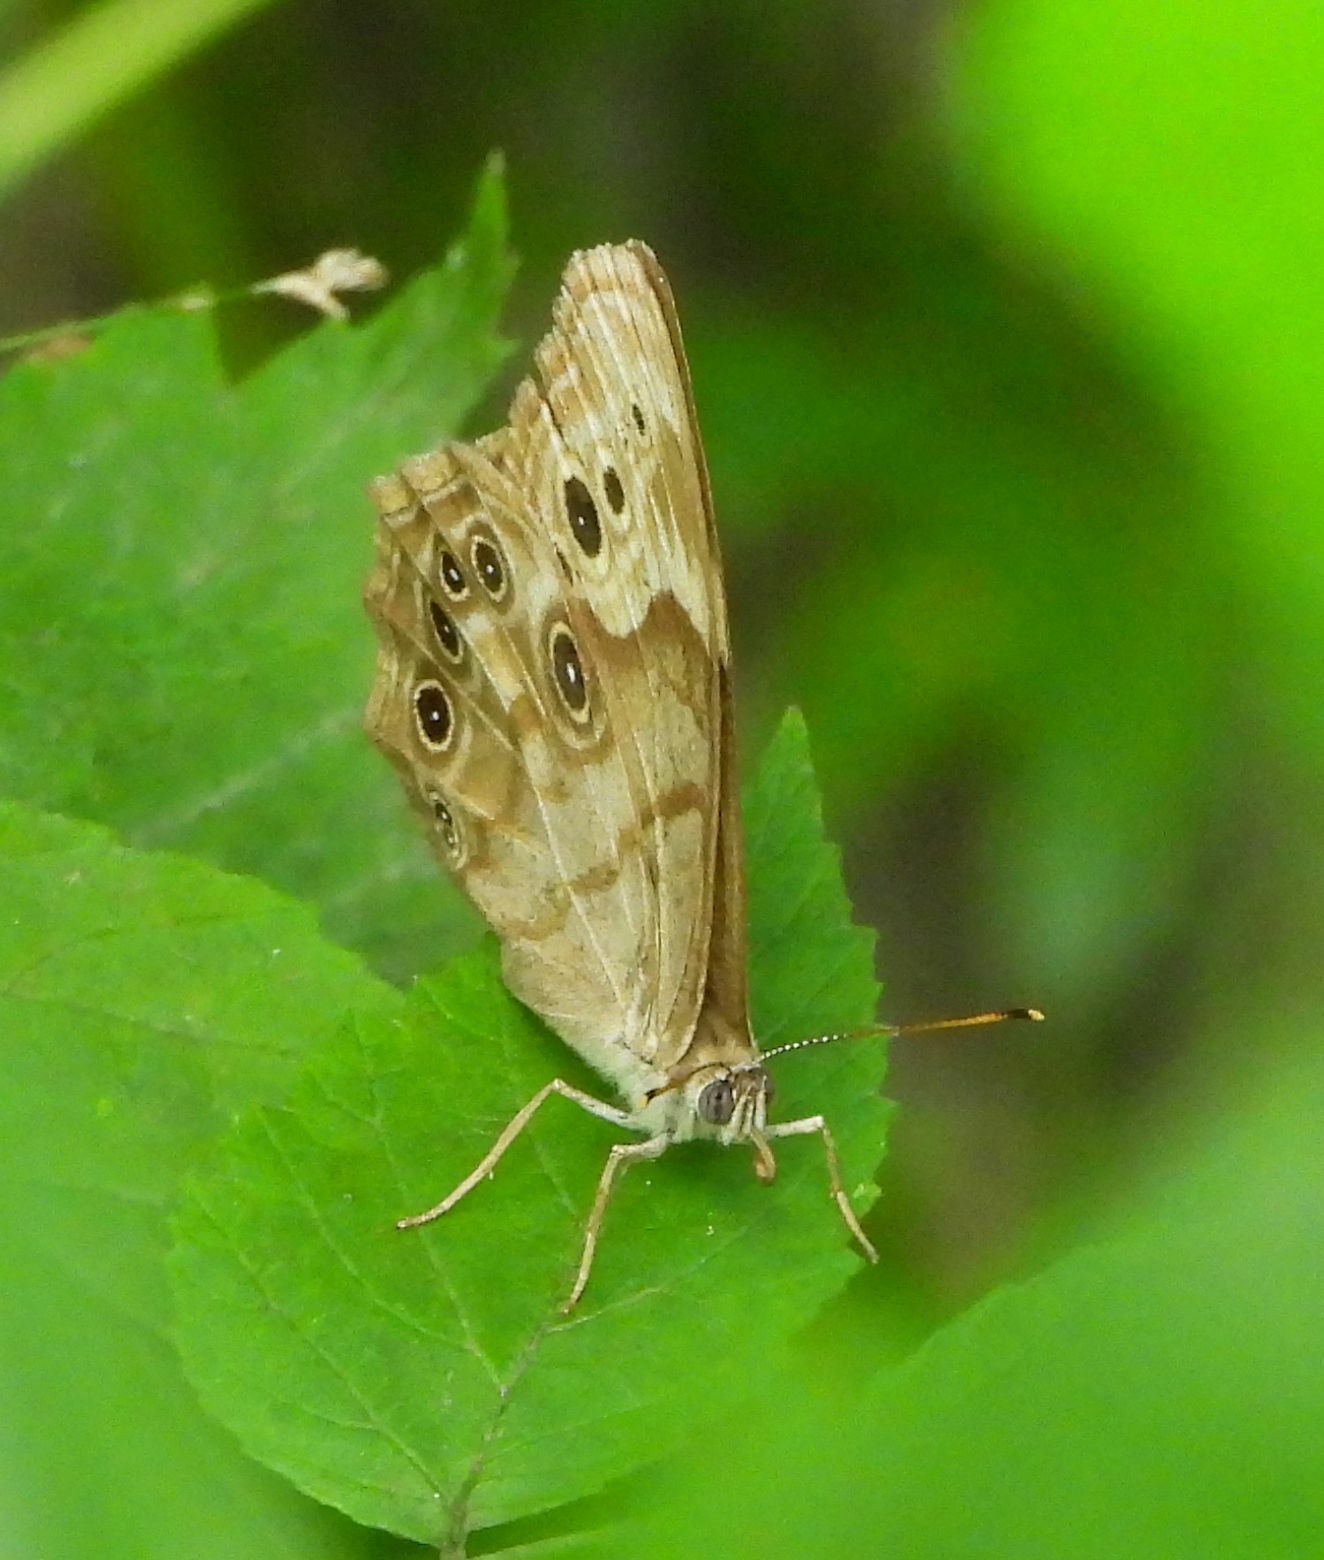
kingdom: Animalia
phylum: Arthropoda
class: Insecta
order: Lepidoptera
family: Nymphalidae
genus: Lethe
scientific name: Lethe anthedon
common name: Northern pearly-eye
